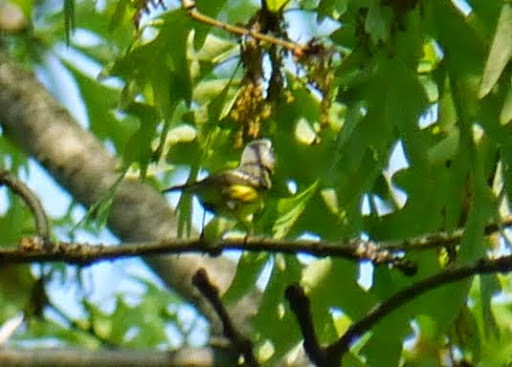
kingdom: Animalia
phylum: Chordata
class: Aves
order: Passeriformes
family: Parulidae
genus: Setophaga
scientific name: Setophaga magnolia
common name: Magnolia warbler
